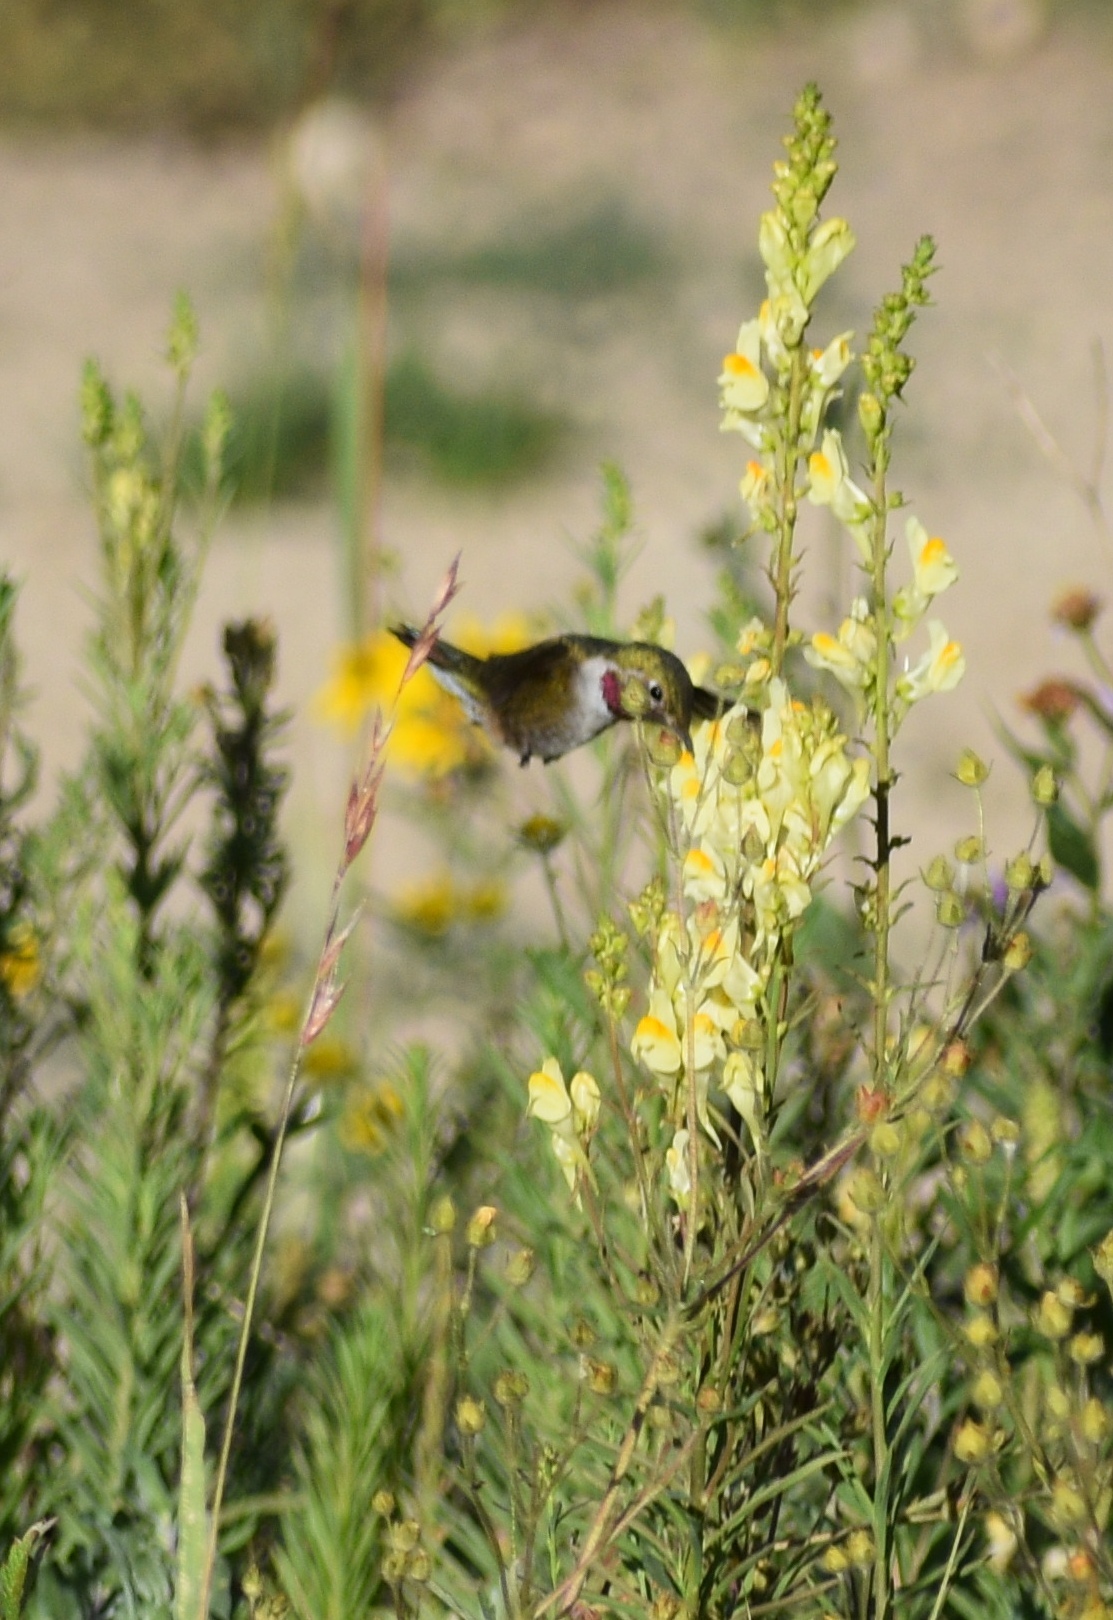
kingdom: Animalia
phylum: Chordata
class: Aves
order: Apodiformes
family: Trochilidae
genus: Selasphorus
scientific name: Selasphorus platycercus
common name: Broad-tailed hummingbird
